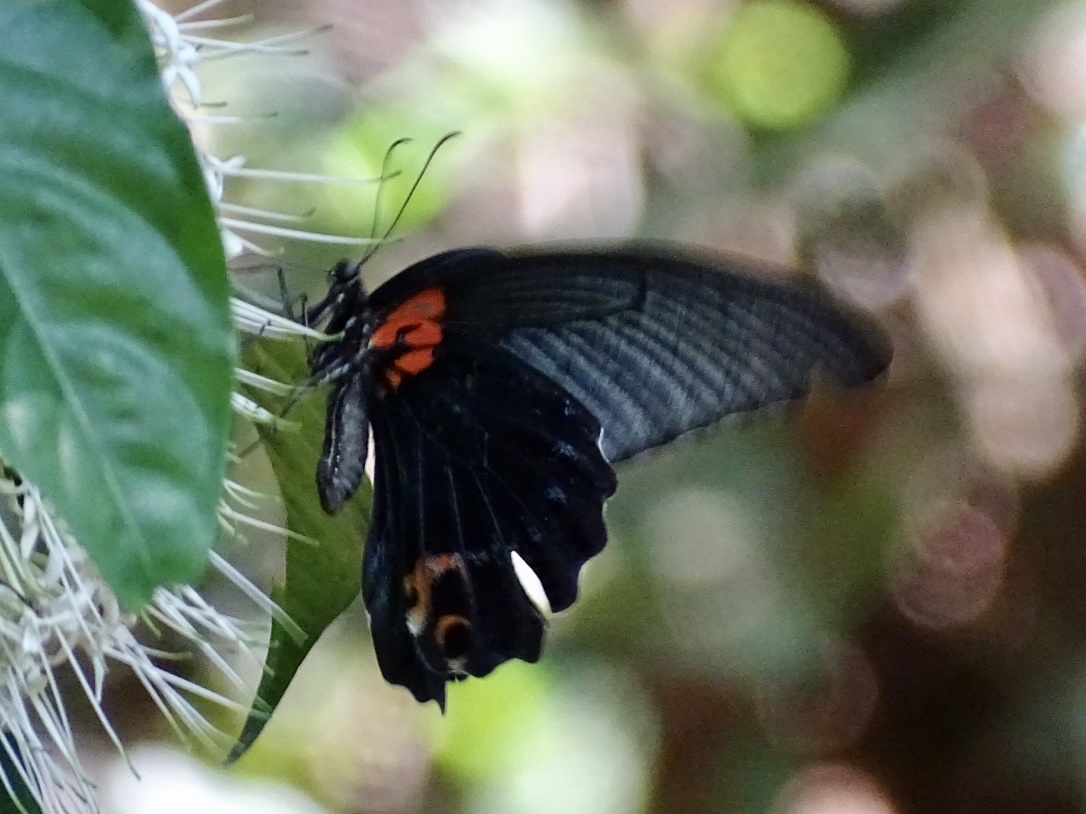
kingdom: Animalia
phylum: Arthropoda
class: Insecta
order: Lepidoptera
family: Papilionidae
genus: Papilio
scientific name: Papilio memnon
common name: Great mormon
